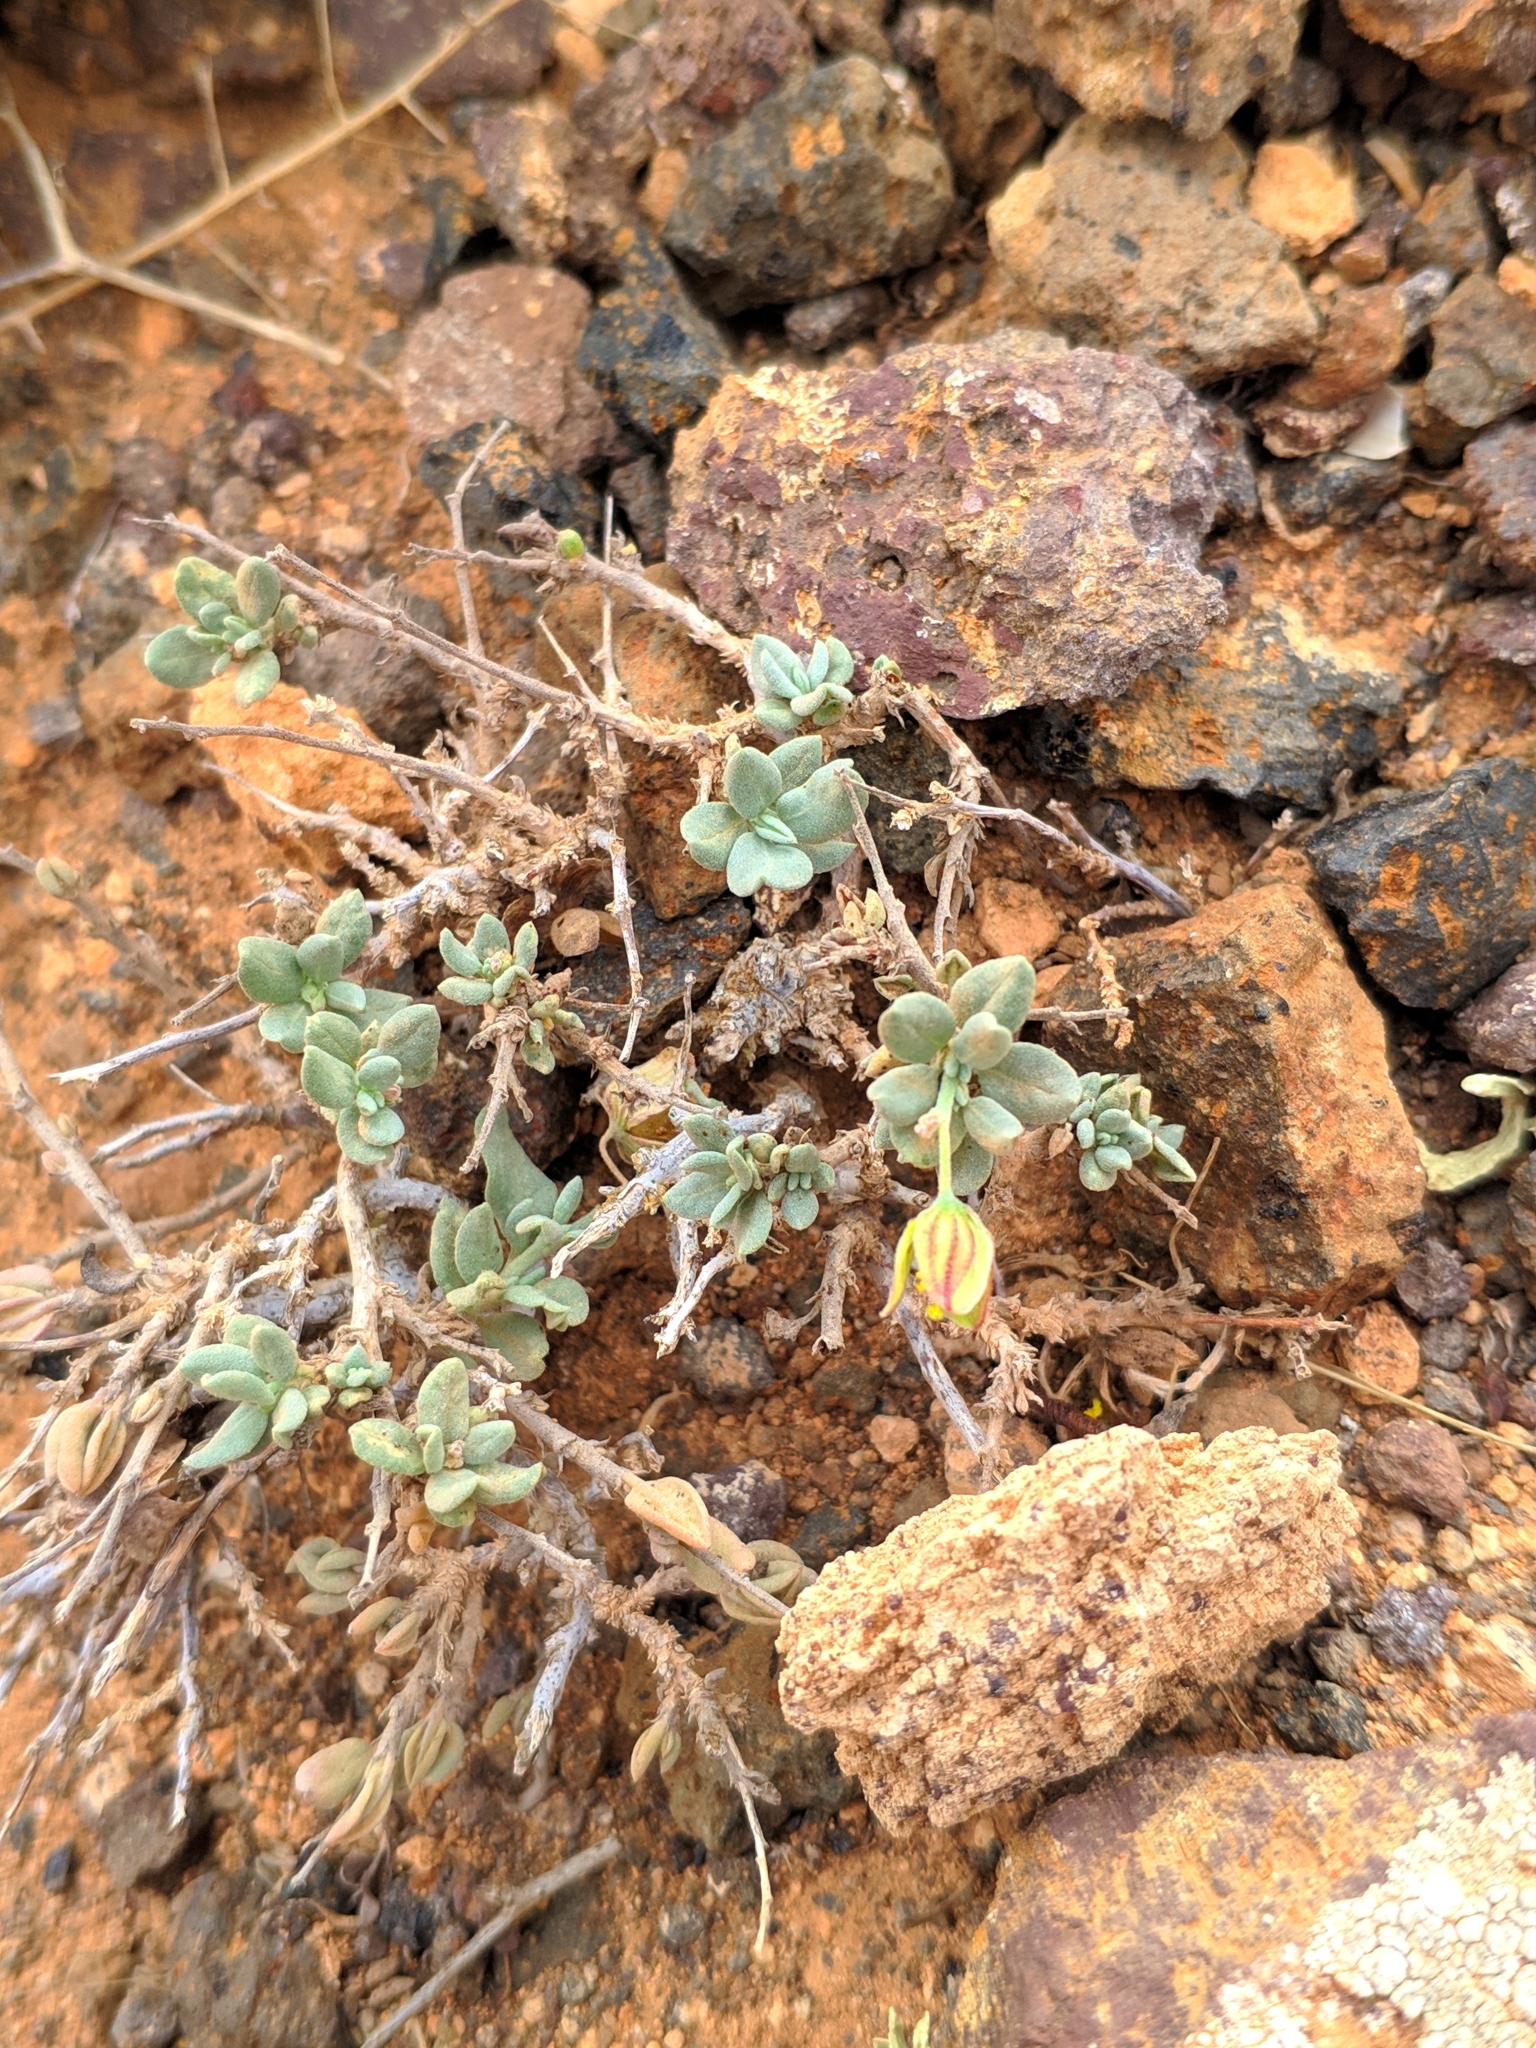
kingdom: Plantae
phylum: Tracheophyta
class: Magnoliopsida
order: Malvales
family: Cistaceae
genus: Helianthemum
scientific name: Helianthemum canariense
